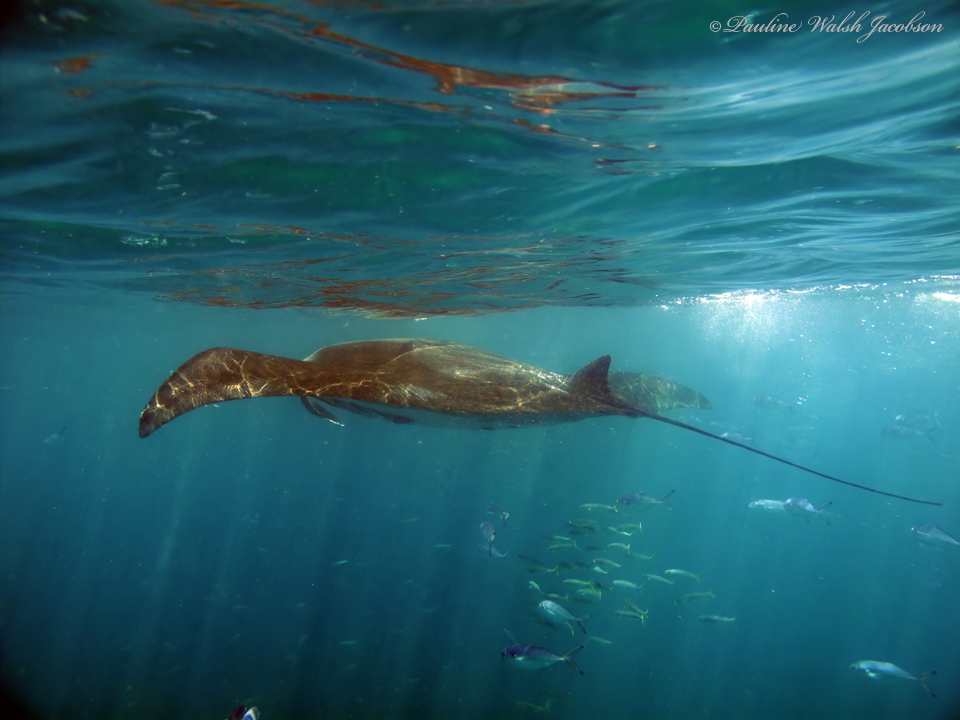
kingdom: Animalia
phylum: Chordata
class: Elasmobranchii
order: Myliobatiformes
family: Myliobatidae
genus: Mobula
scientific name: Mobula birostris
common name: Manta ray
